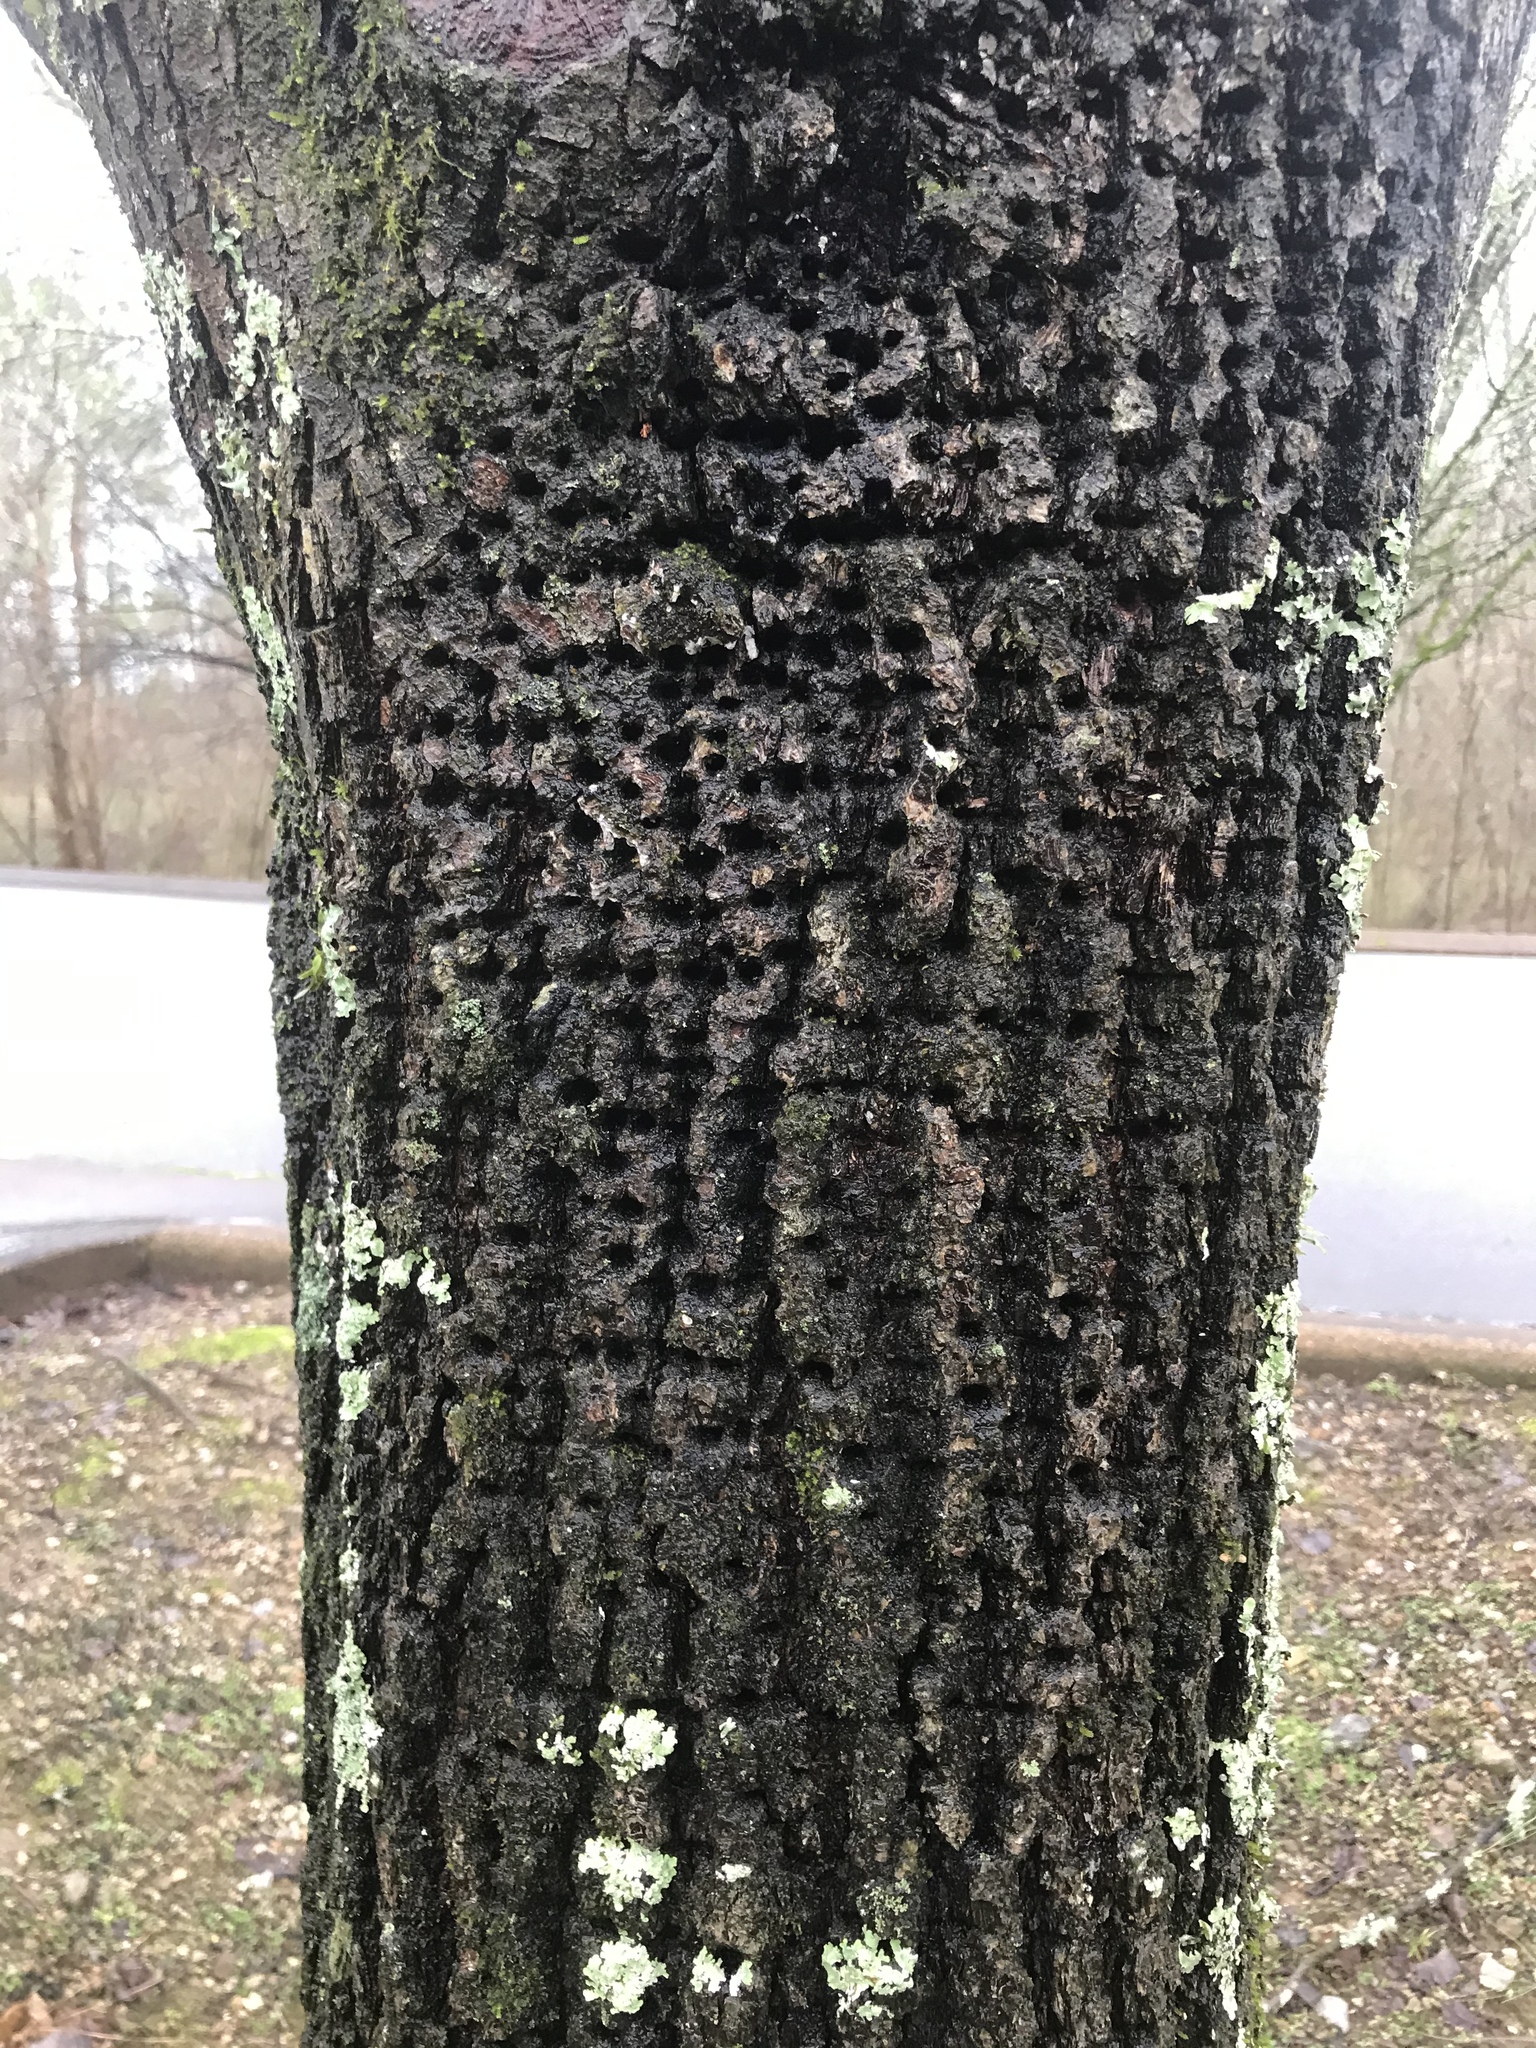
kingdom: Animalia
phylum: Chordata
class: Aves
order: Piciformes
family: Picidae
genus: Sphyrapicus
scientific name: Sphyrapicus varius
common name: Yellow-bellied sapsucker
